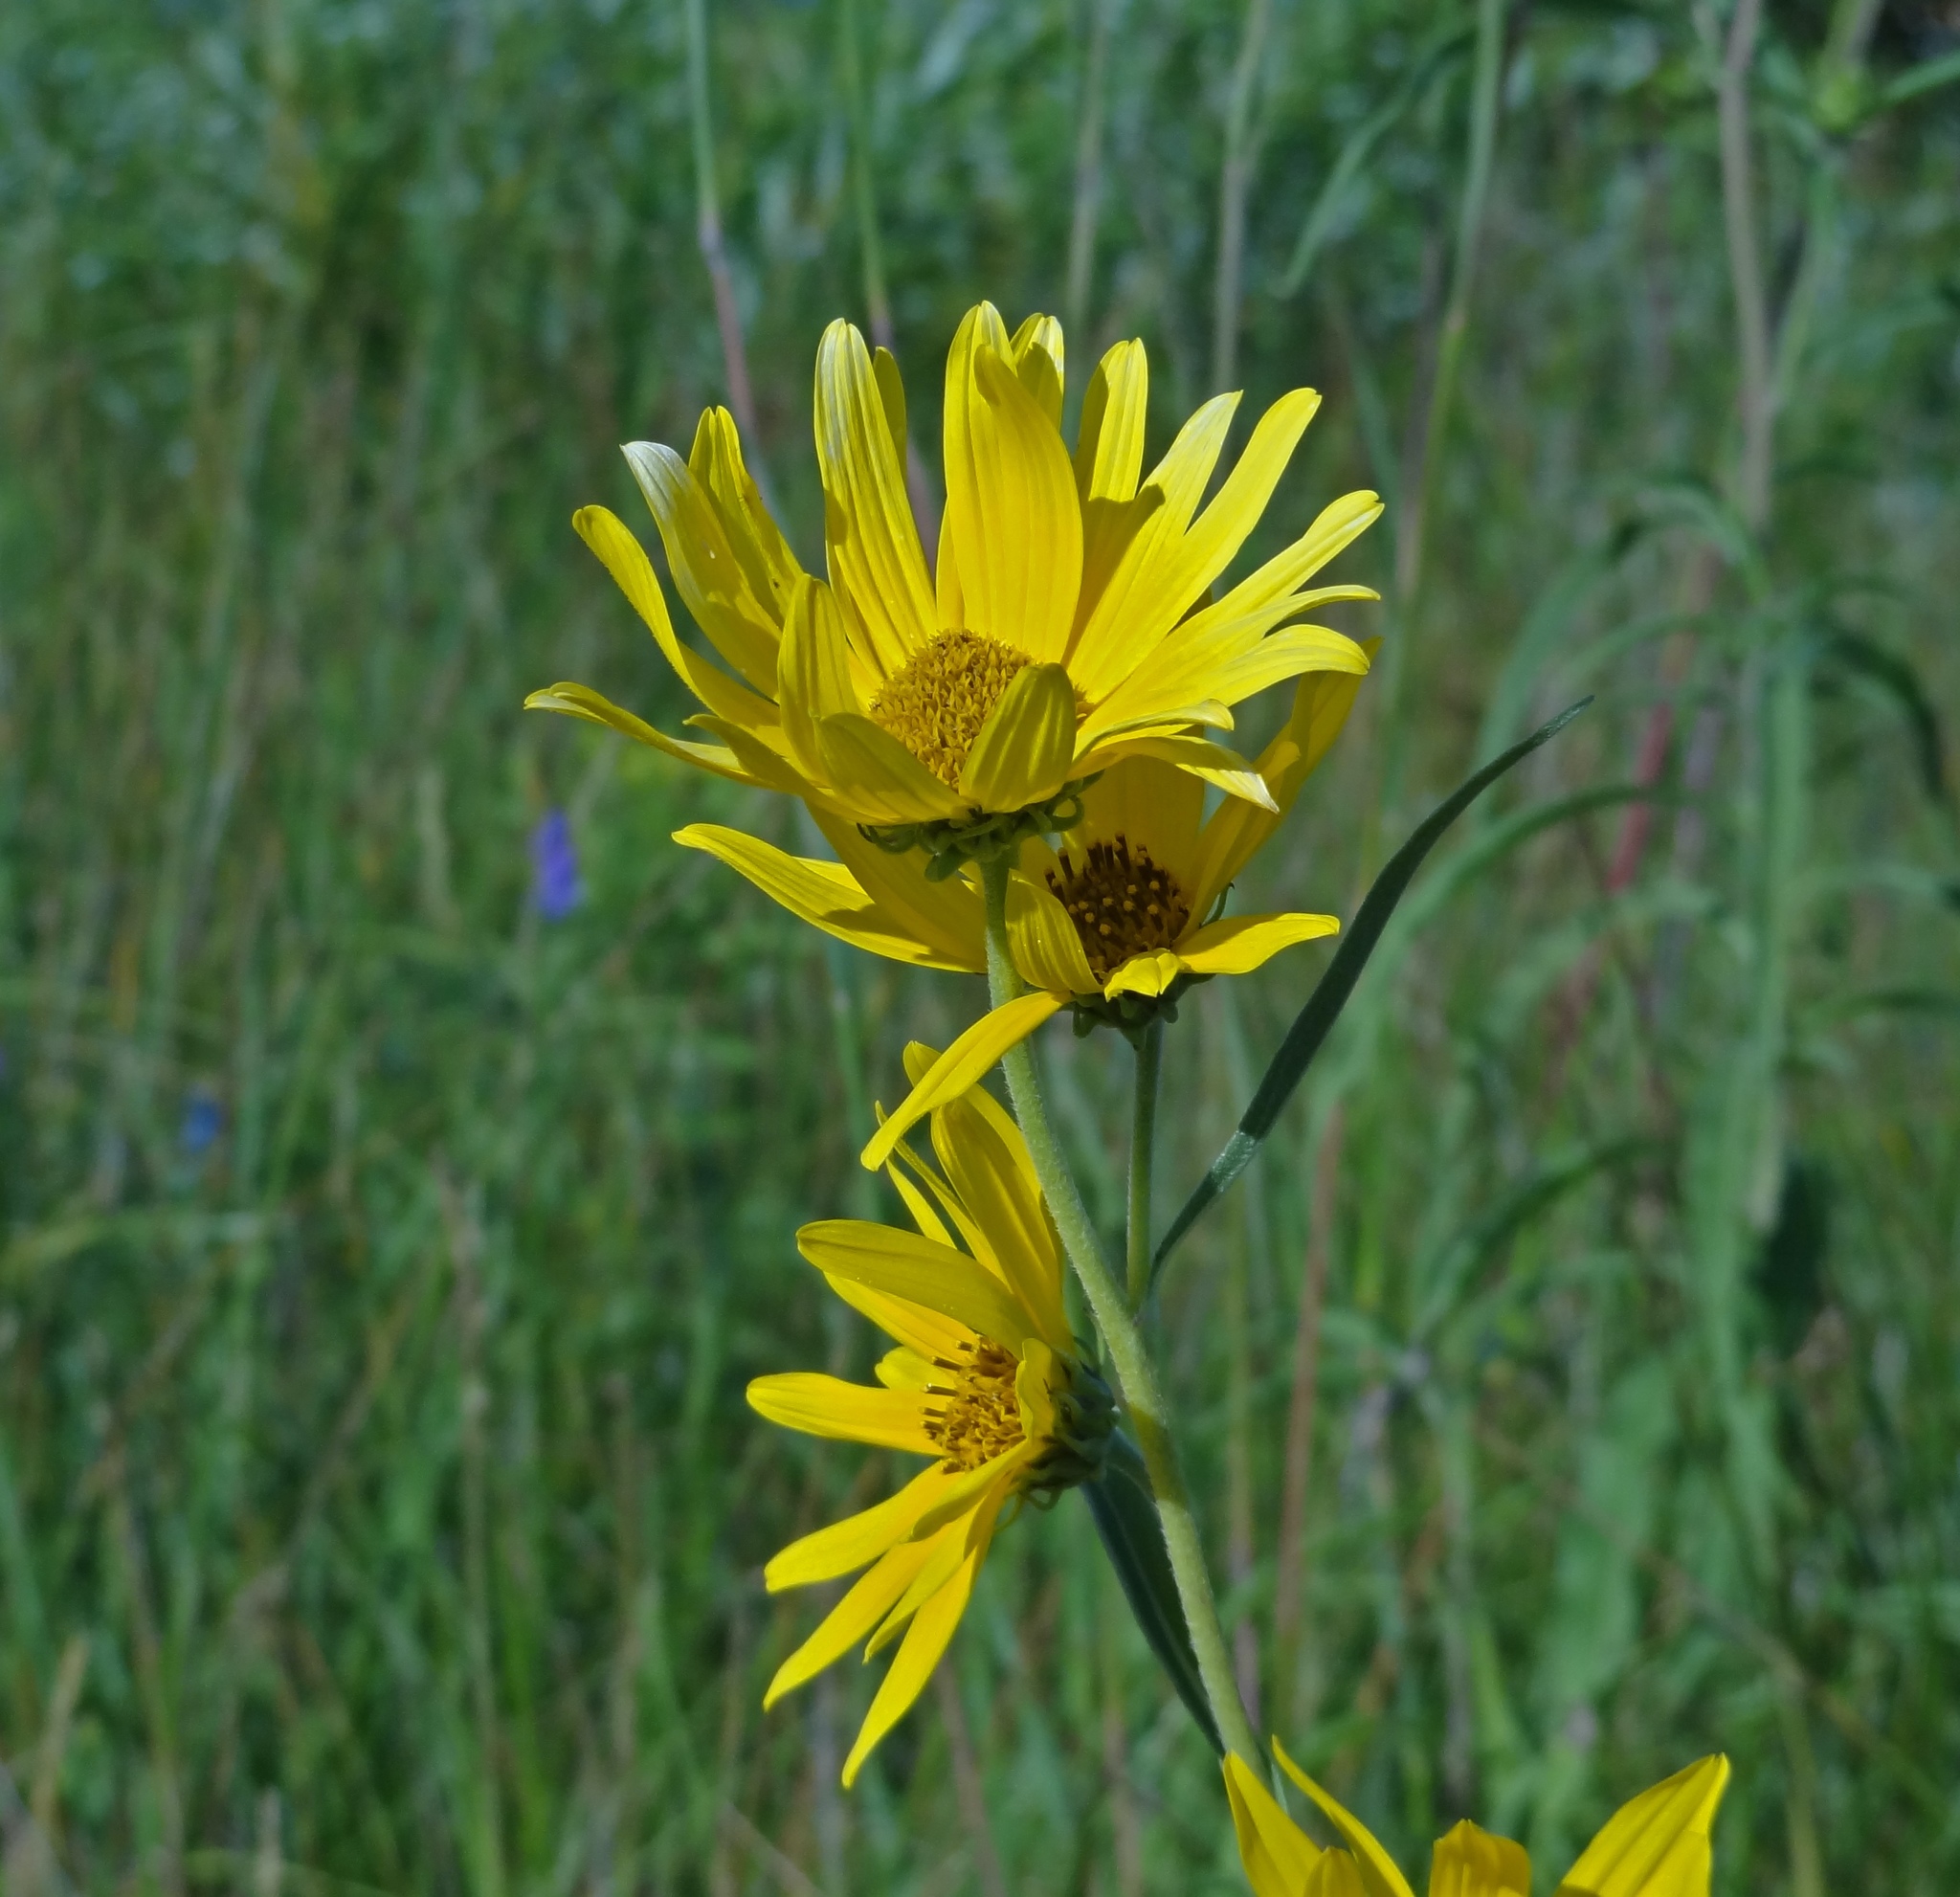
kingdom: Plantae
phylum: Tracheophyta
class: Magnoliopsida
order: Asterales
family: Asteraceae
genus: Helianthus
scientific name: Helianthus maximiliani
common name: Maximilian's sunflower
